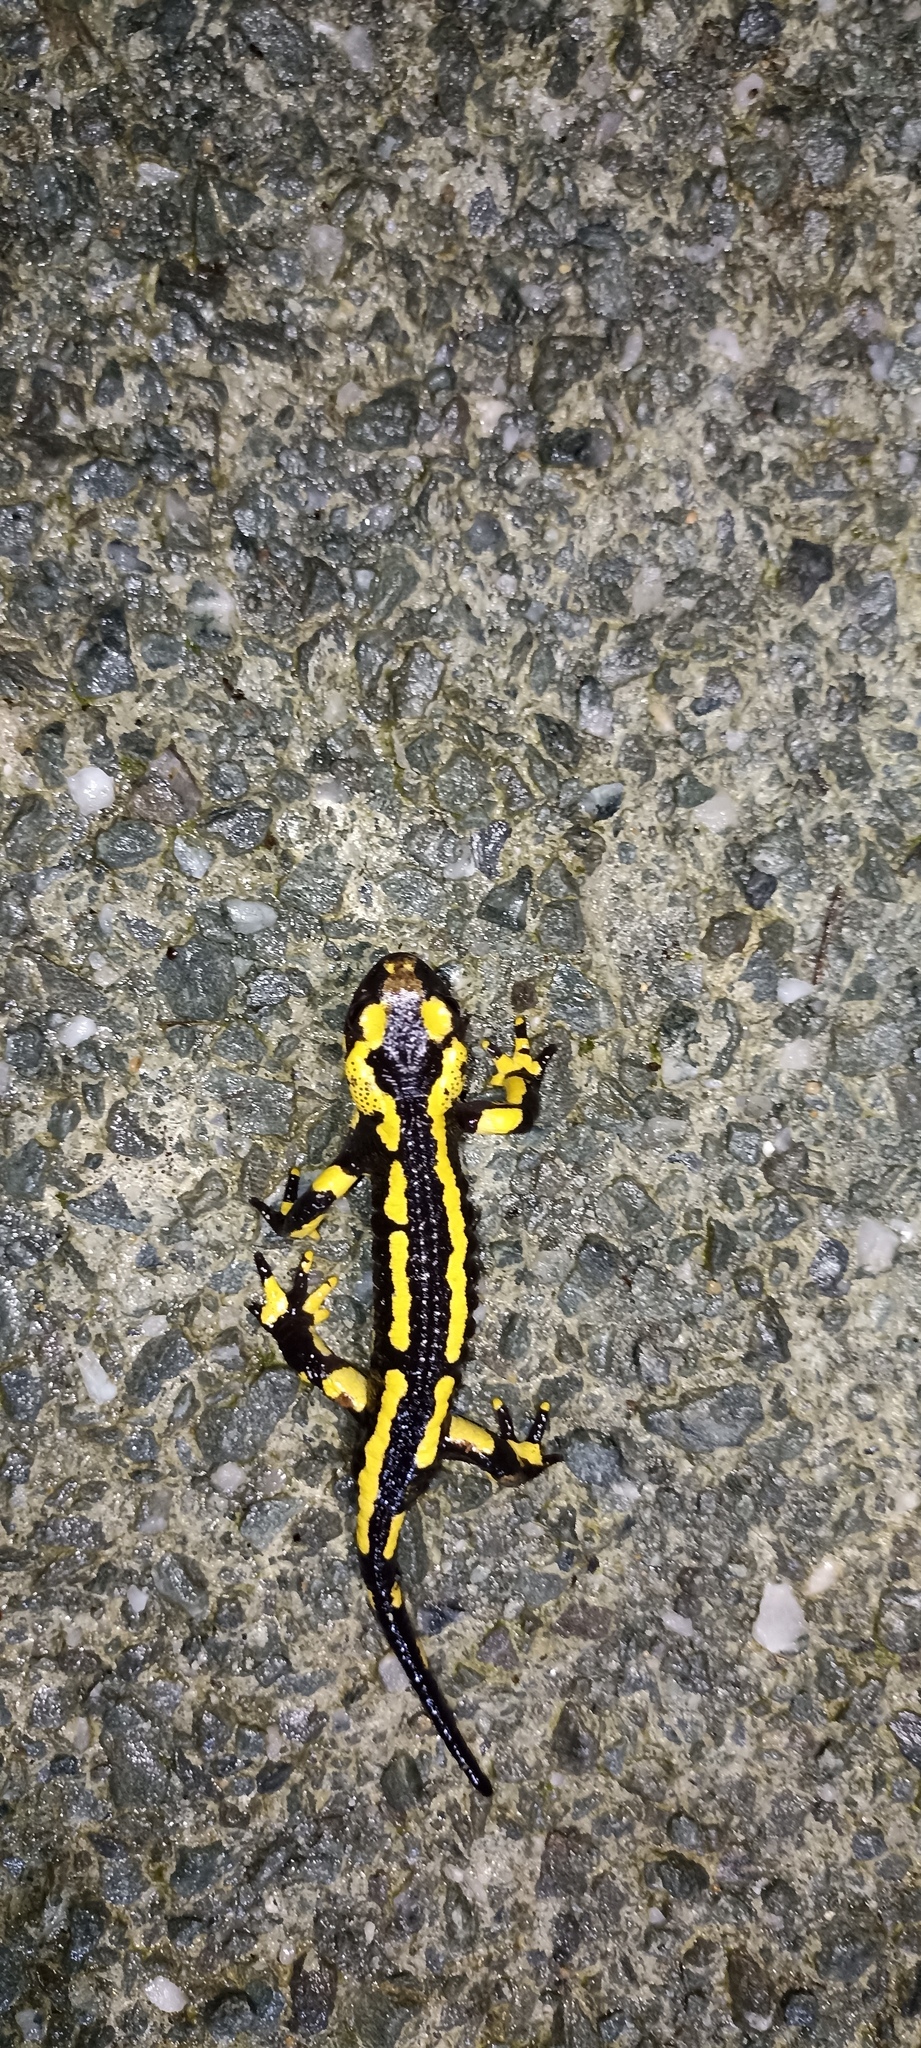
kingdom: Animalia
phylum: Chordata
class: Amphibia
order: Caudata
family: Salamandridae
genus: Salamandra
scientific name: Salamandra salamandra
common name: Fire salamander
